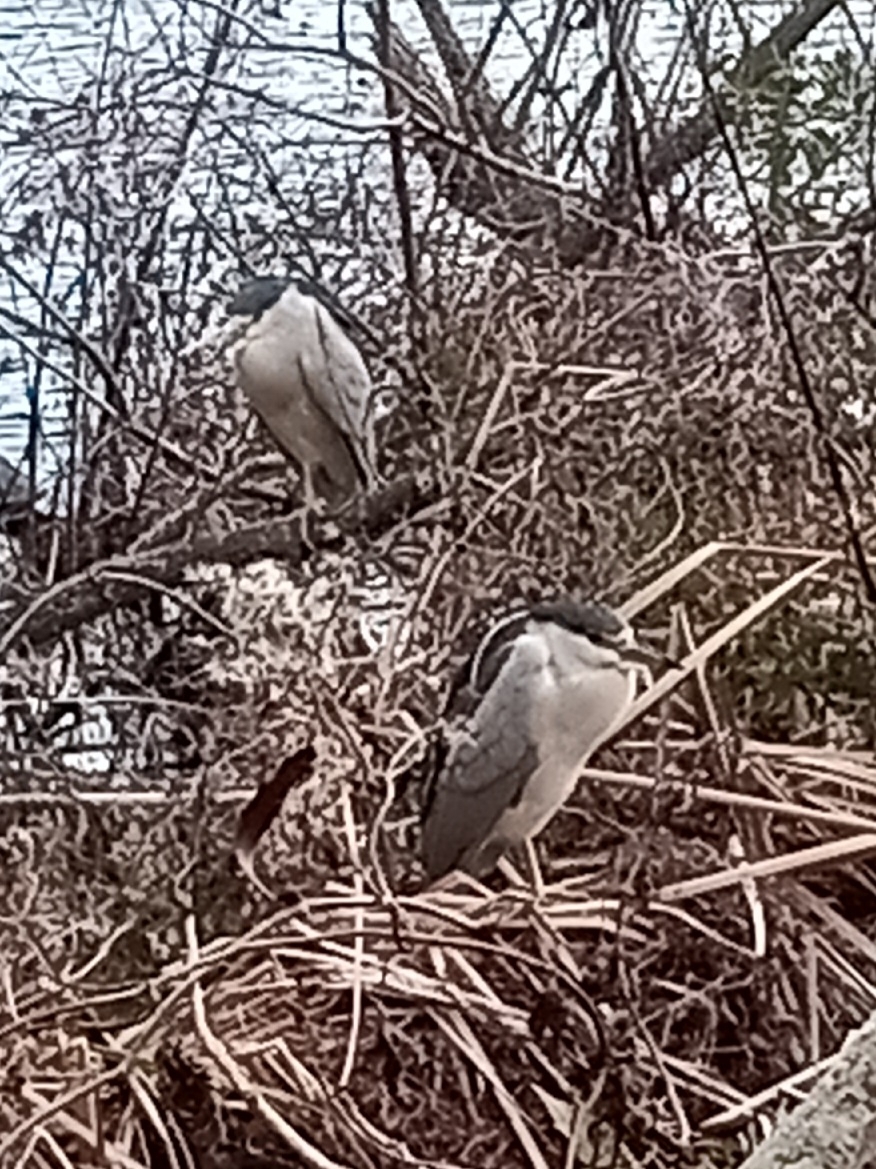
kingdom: Animalia
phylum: Chordata
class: Aves
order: Pelecaniformes
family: Ardeidae
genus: Nycticorax
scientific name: Nycticorax nycticorax
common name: Black-crowned night heron
